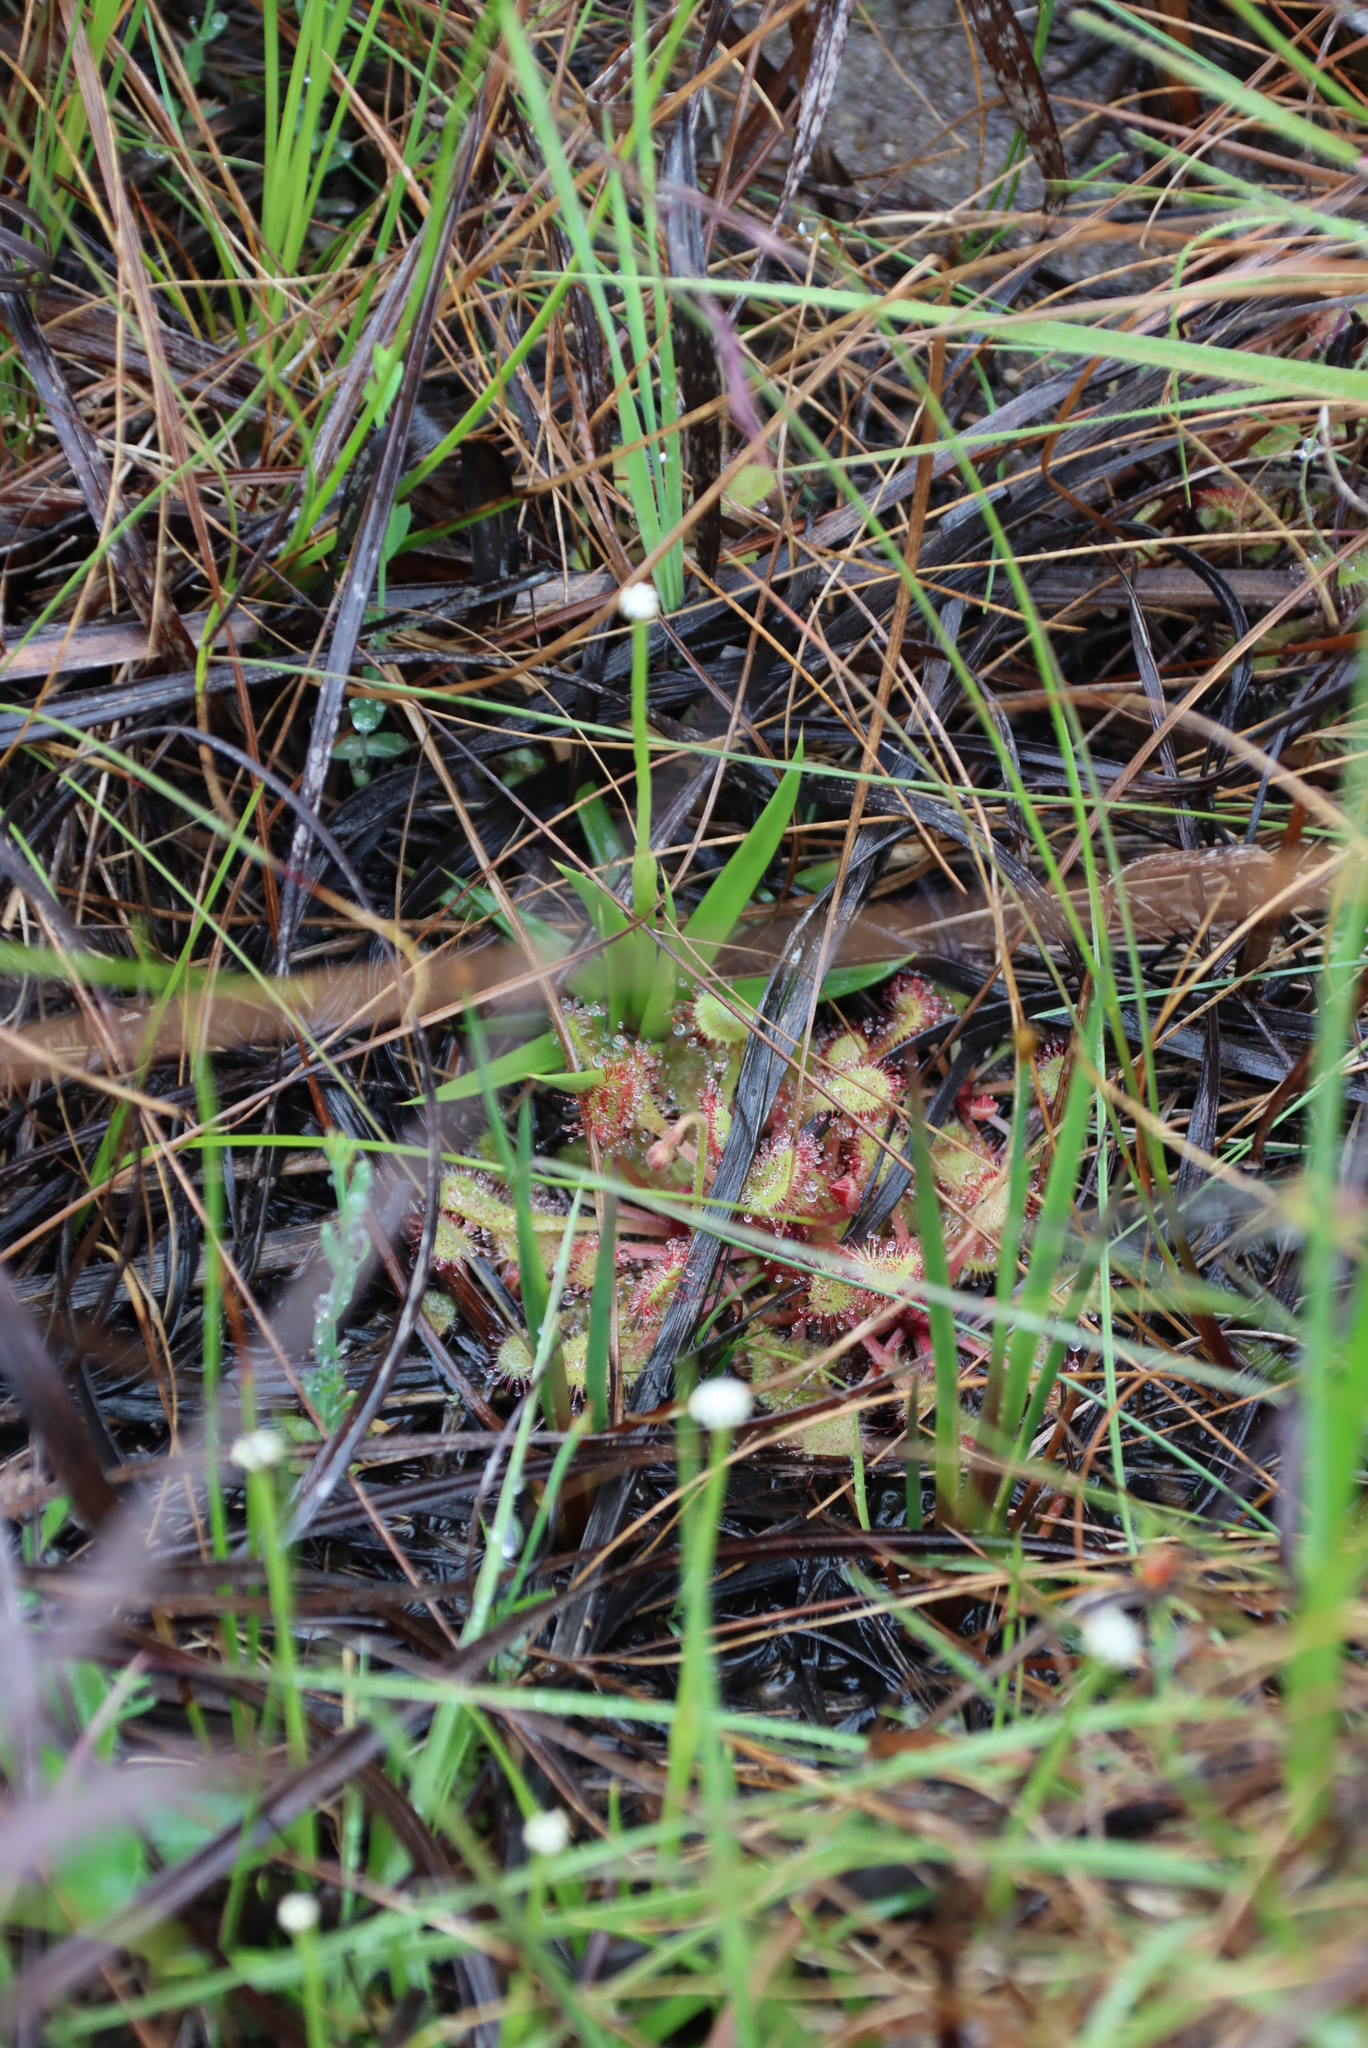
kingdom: Plantae
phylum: Tracheophyta
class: Magnoliopsida
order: Caryophyllales
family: Droseraceae
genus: Drosera
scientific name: Drosera collinsiae
